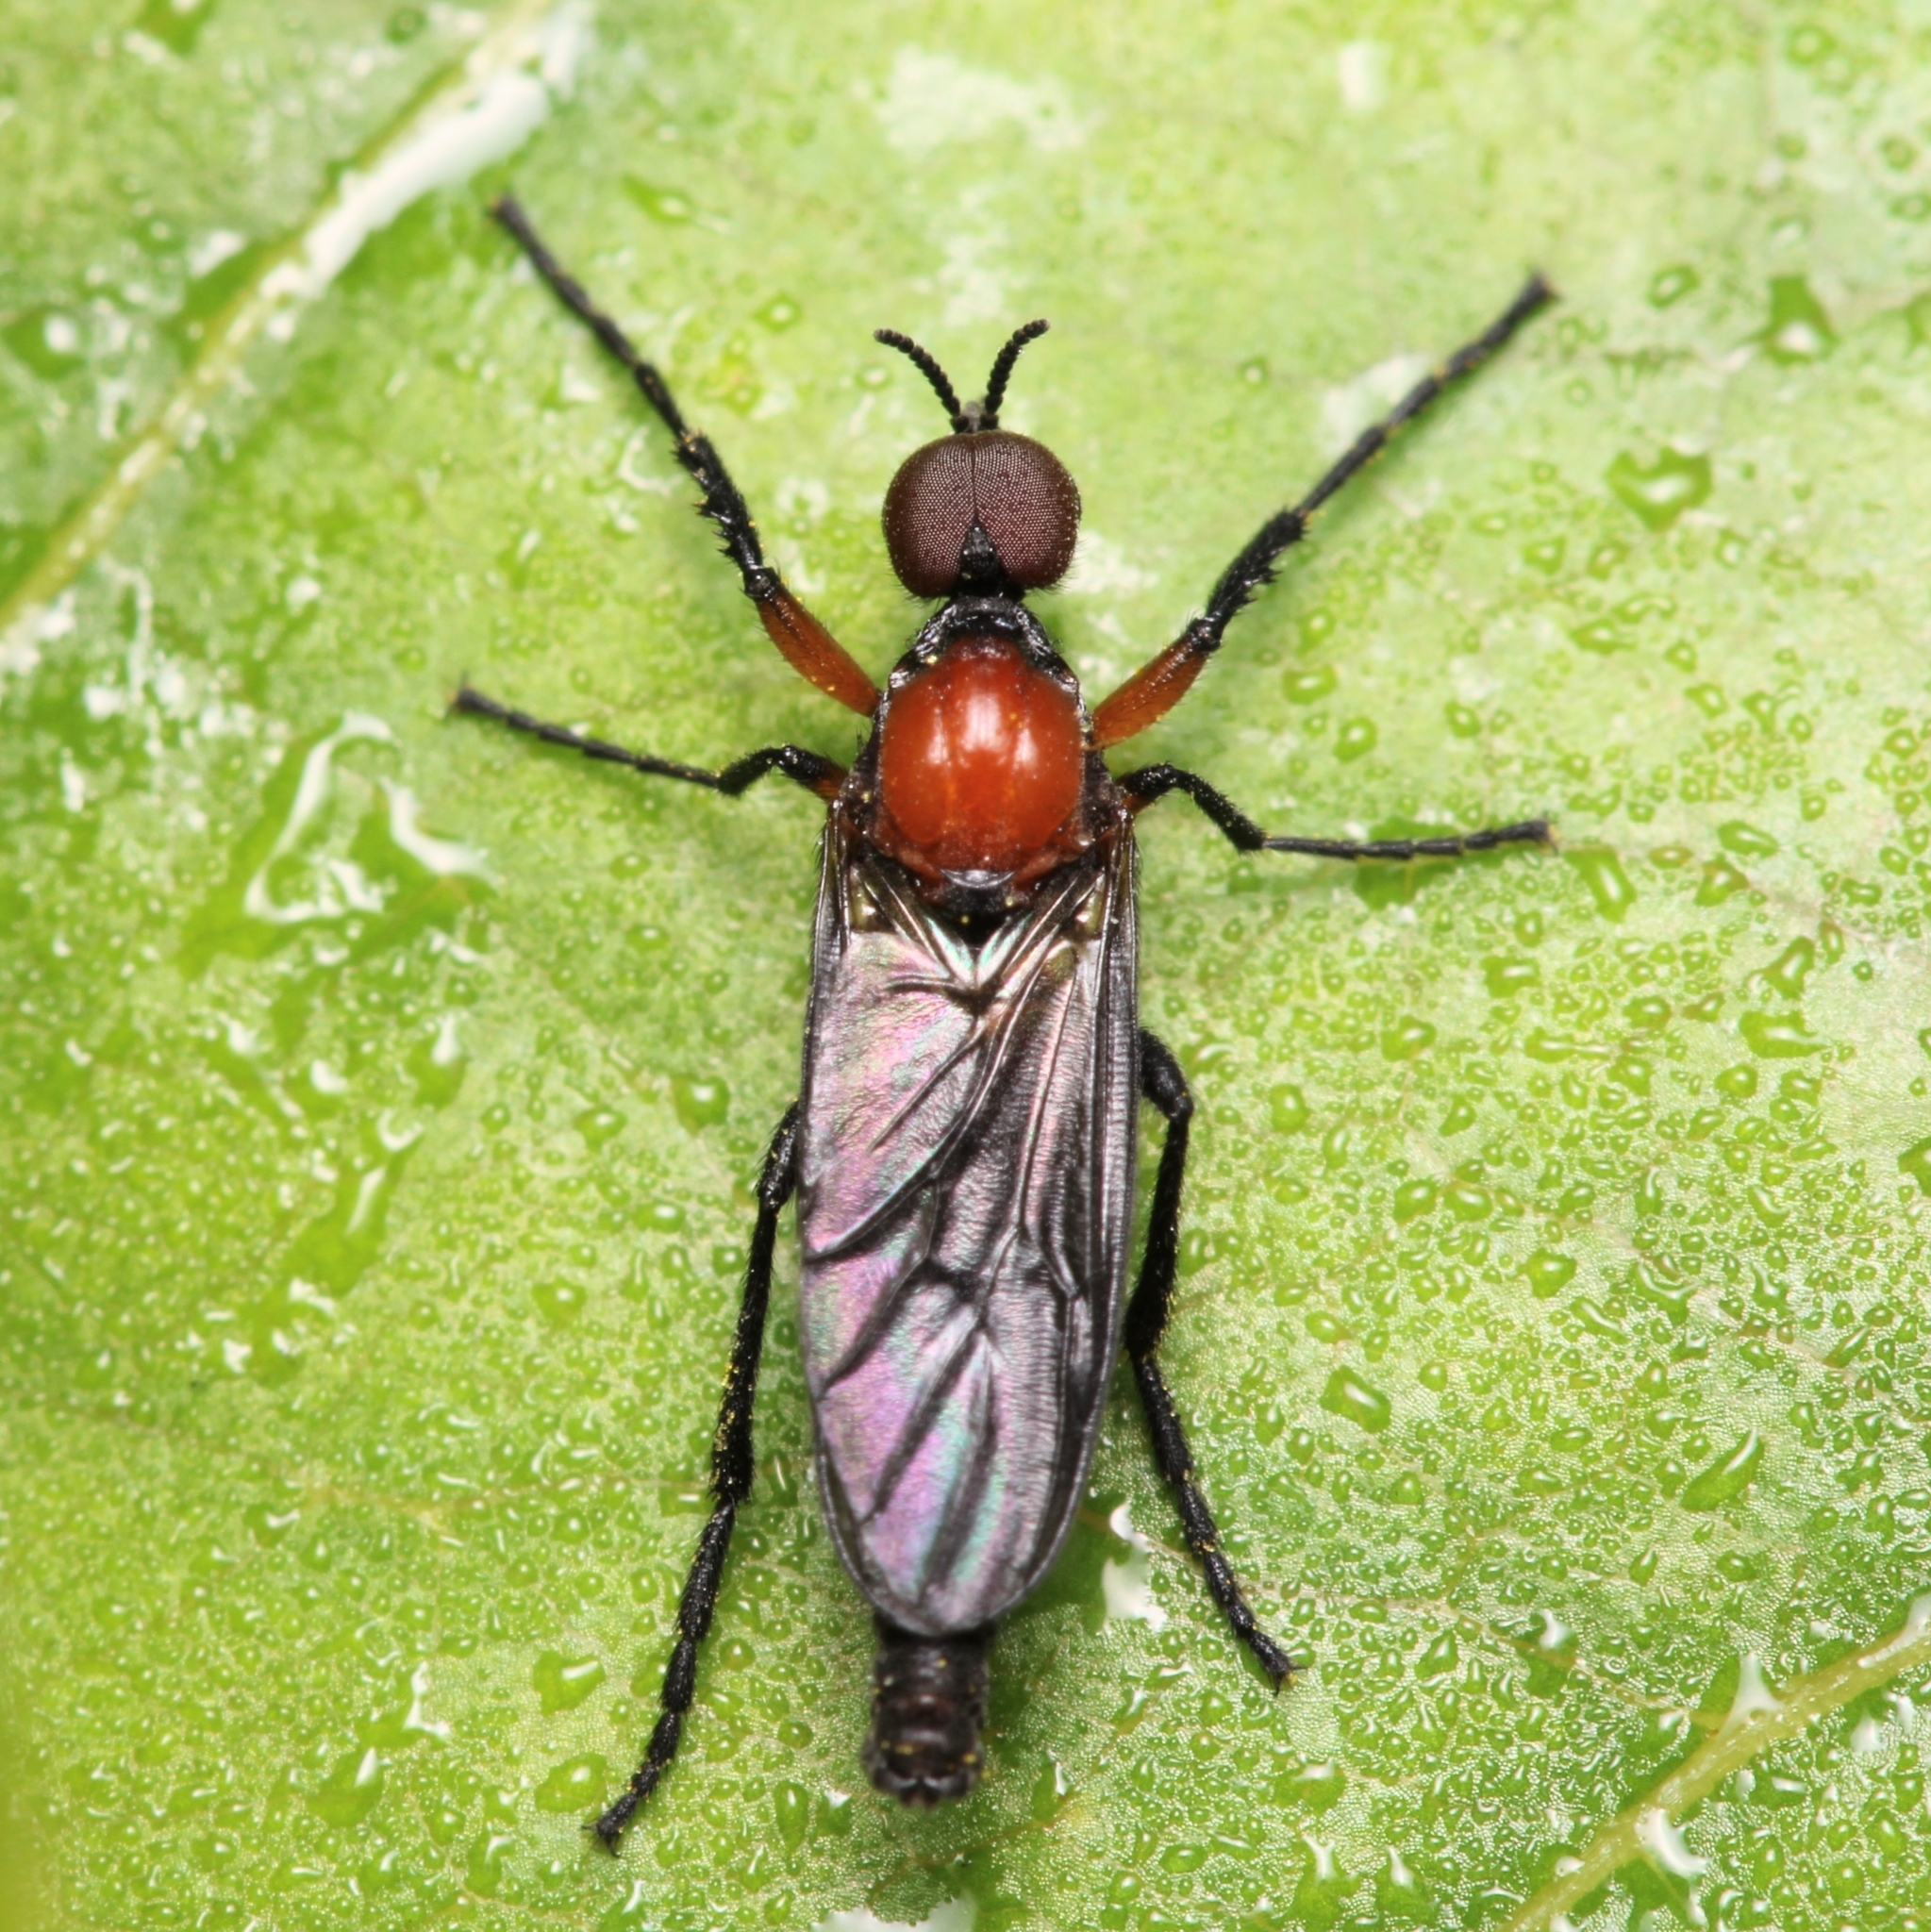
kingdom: Animalia
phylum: Arthropoda
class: Insecta
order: Diptera
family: Bibionidae
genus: Dilophus
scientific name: Dilophus spinipes
